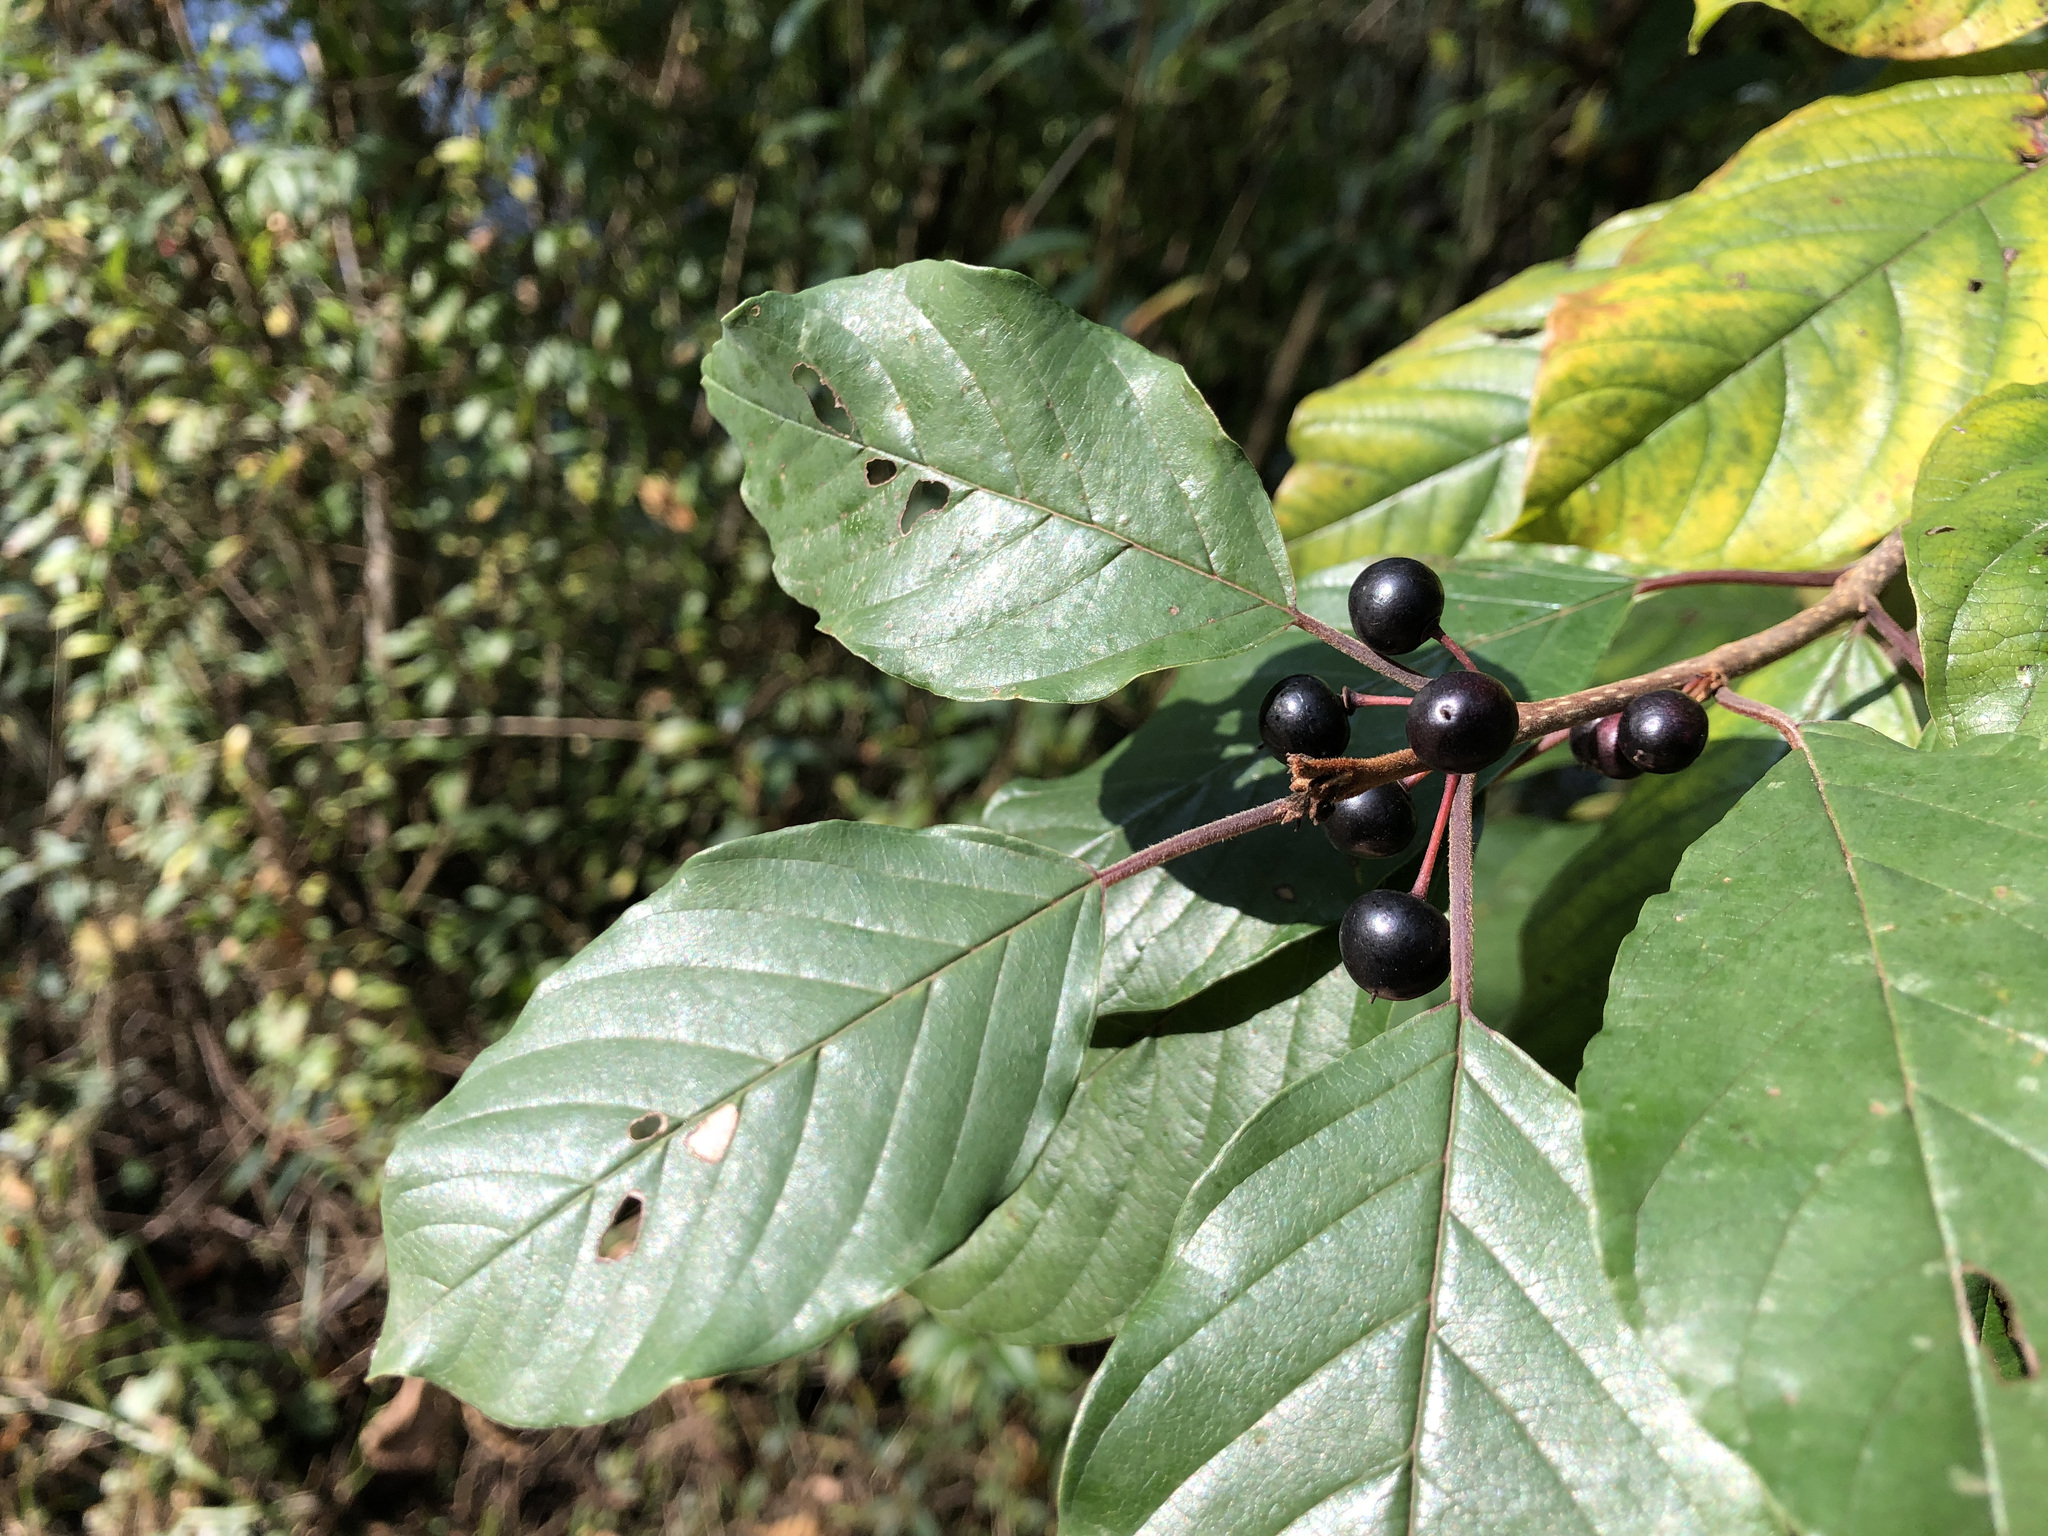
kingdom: Plantae
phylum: Tracheophyta
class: Magnoliopsida
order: Rosales
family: Rhamnaceae
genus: Frangula
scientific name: Frangula alnus
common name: Alder buckthorn
